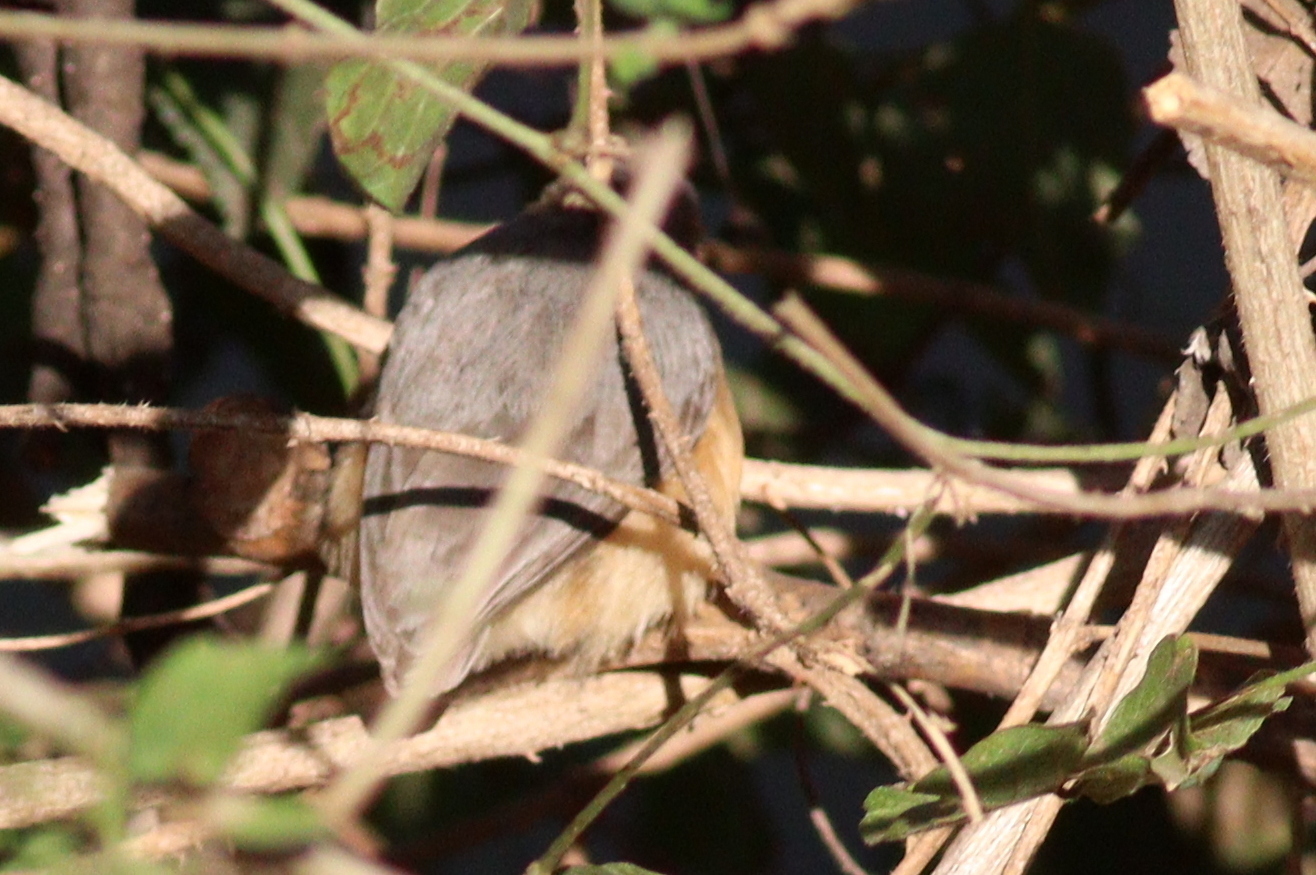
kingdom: Animalia
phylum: Chordata
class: Aves
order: Passeriformes
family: Macrosphenidae
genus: Sylvietta
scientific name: Sylvietta whytii
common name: Red-faced crombec
